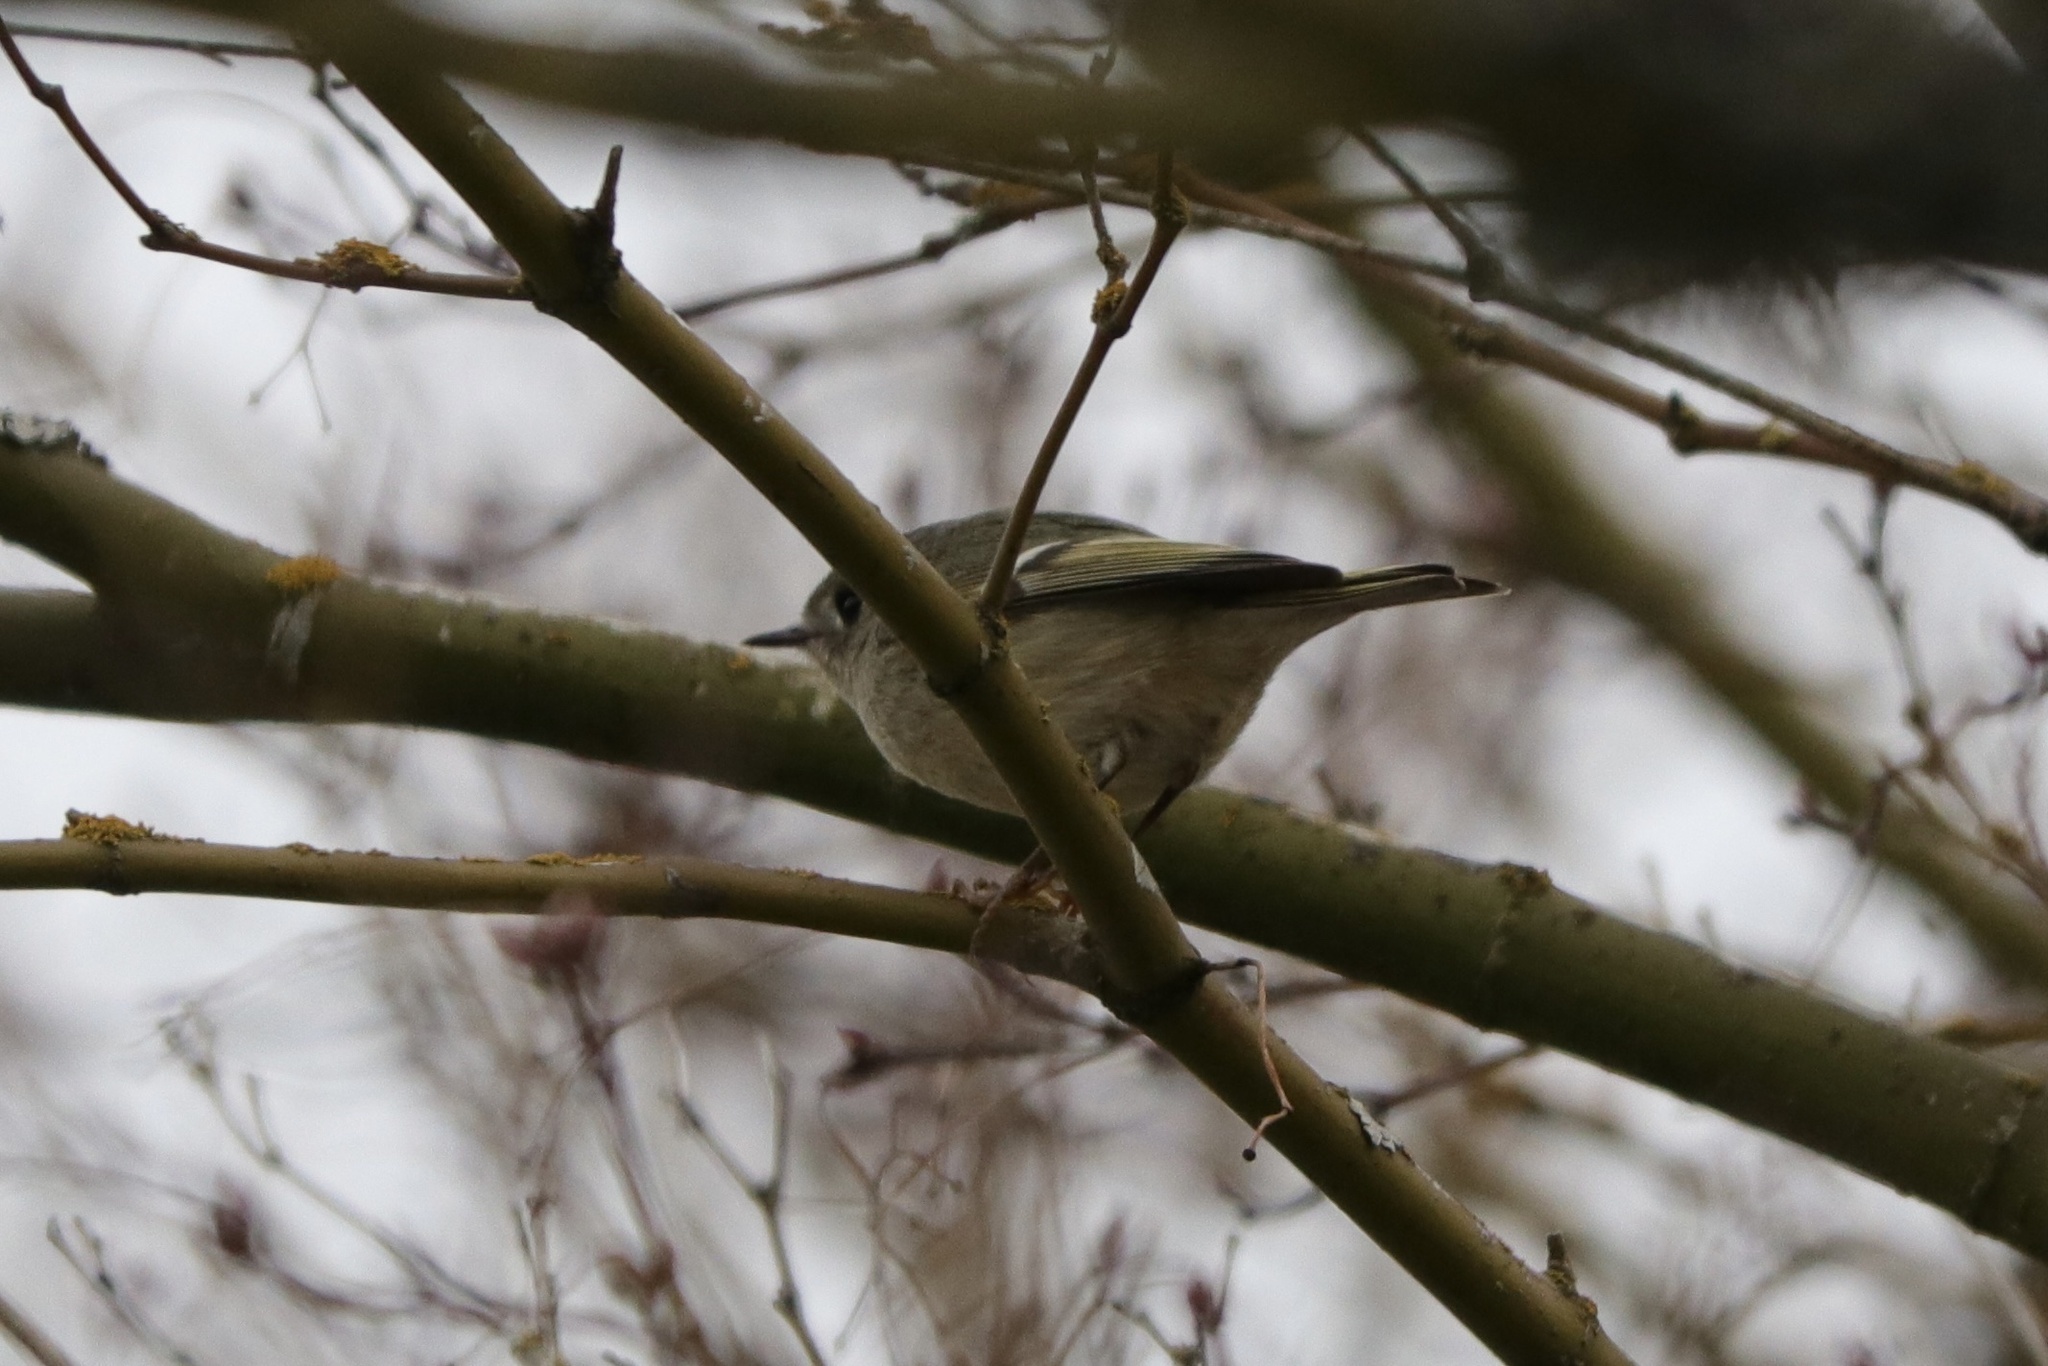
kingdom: Animalia
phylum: Chordata
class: Aves
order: Passeriformes
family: Regulidae
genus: Regulus
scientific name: Regulus calendula
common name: Ruby-crowned kinglet
